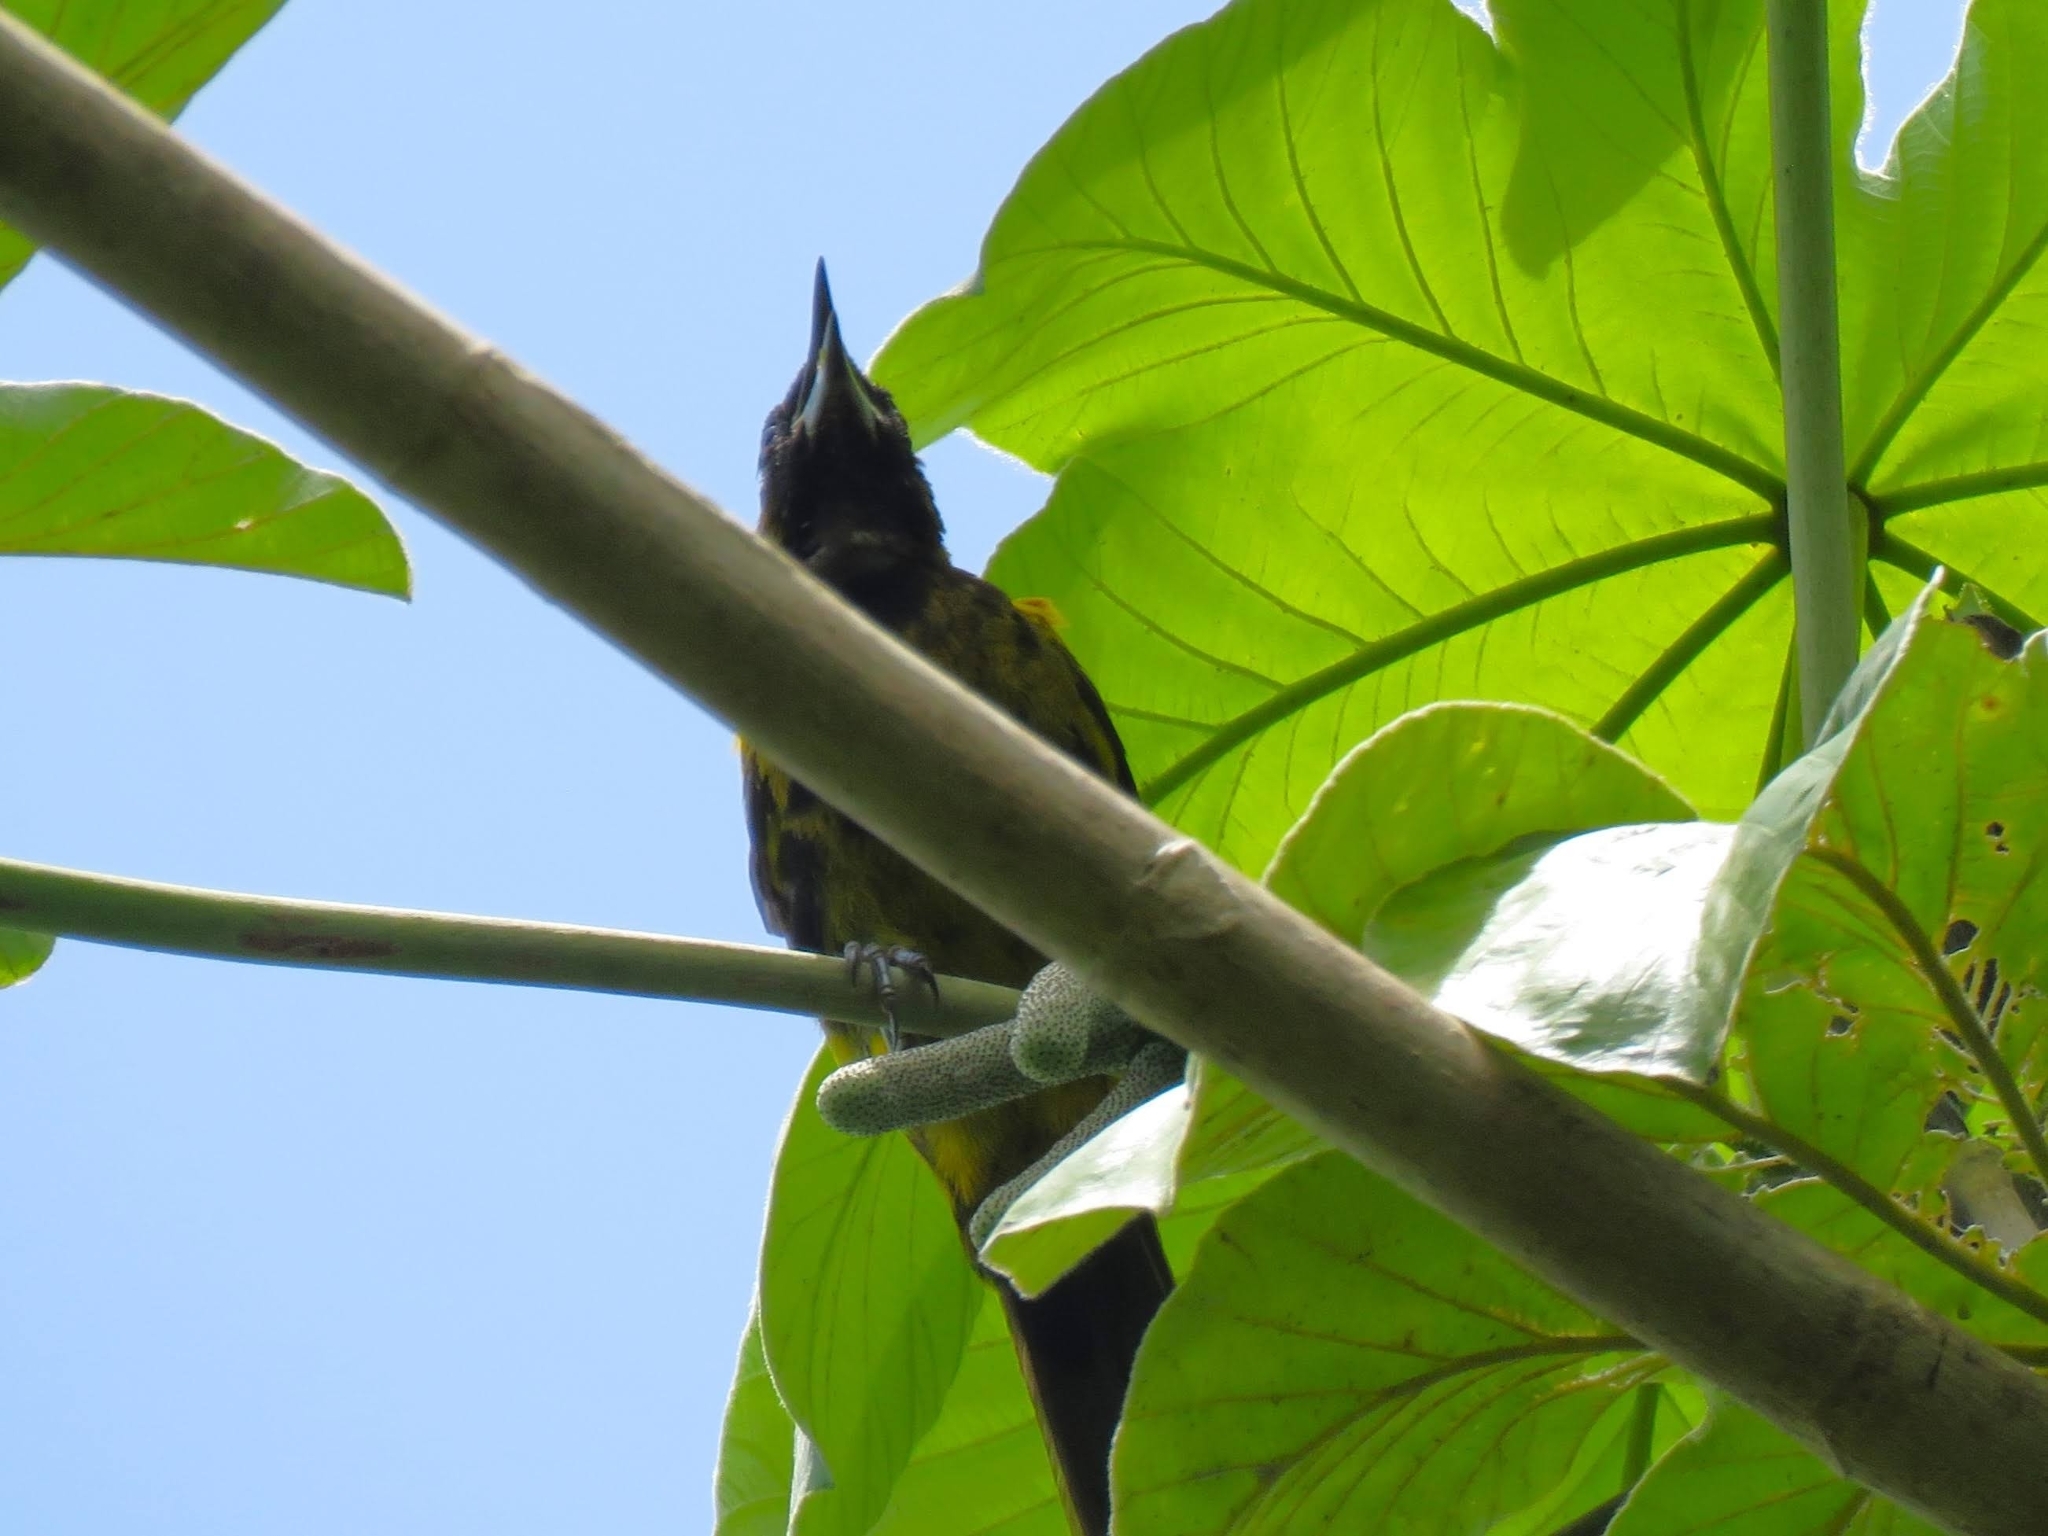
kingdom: Animalia
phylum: Chordata
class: Aves
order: Passeriformes
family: Icteridae
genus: Icterus
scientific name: Icterus dominicensis
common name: Hispaniolan oriole
